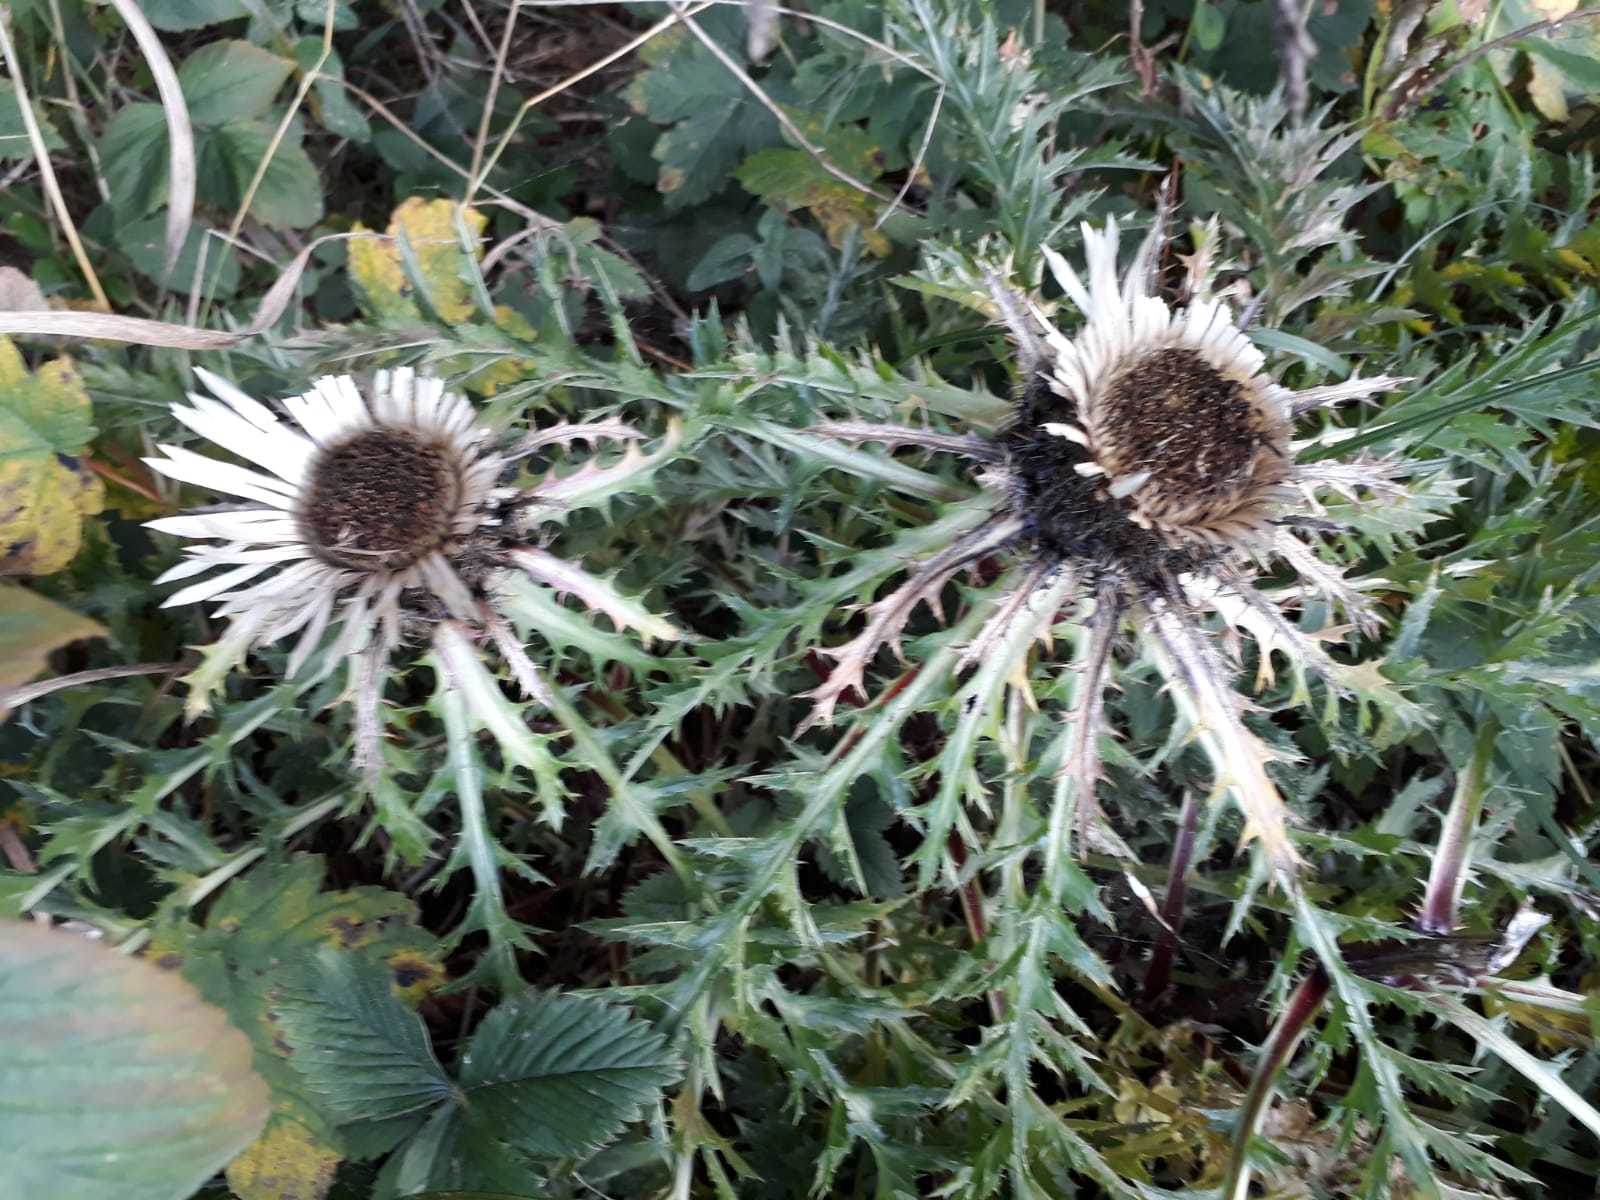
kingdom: Plantae
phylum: Tracheophyta
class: Magnoliopsida
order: Asterales
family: Asteraceae
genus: Carlina
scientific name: Carlina acaulis
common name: Stemless carline thistle
